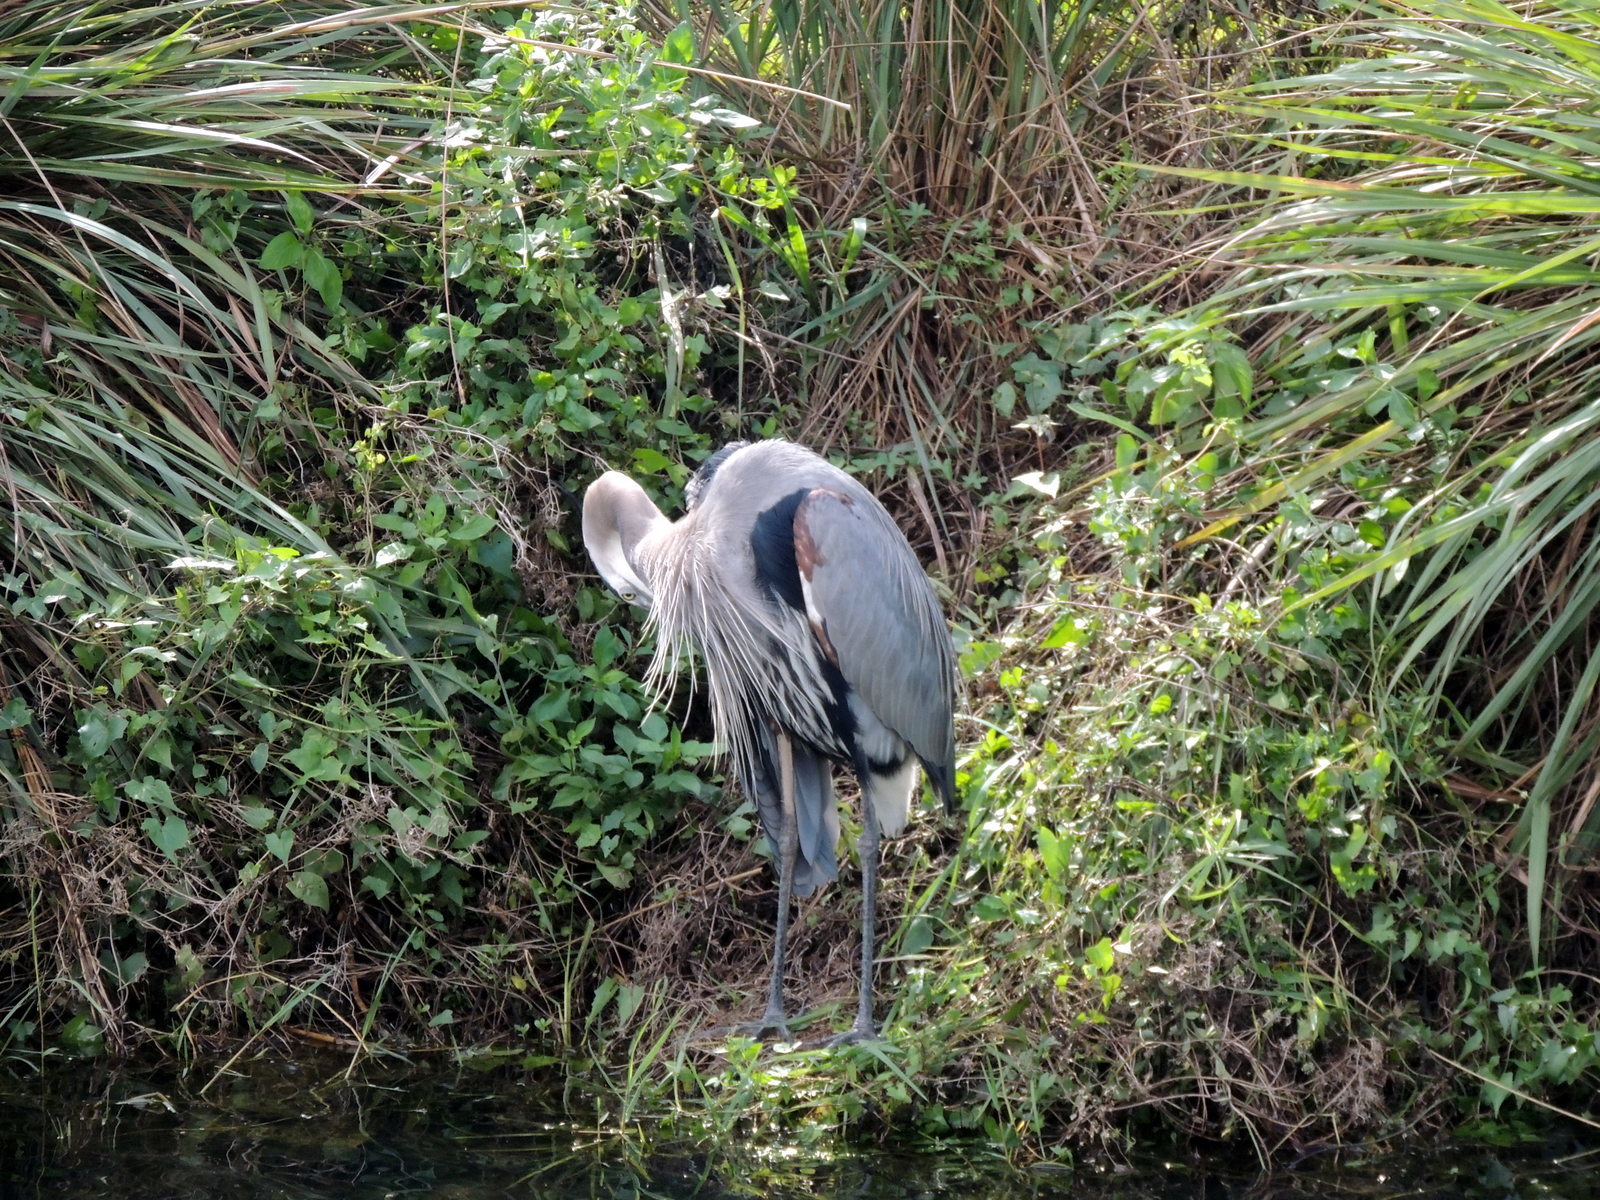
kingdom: Animalia
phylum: Chordata
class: Aves
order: Pelecaniformes
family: Ardeidae
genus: Ardea
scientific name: Ardea herodias
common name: Great blue heron
